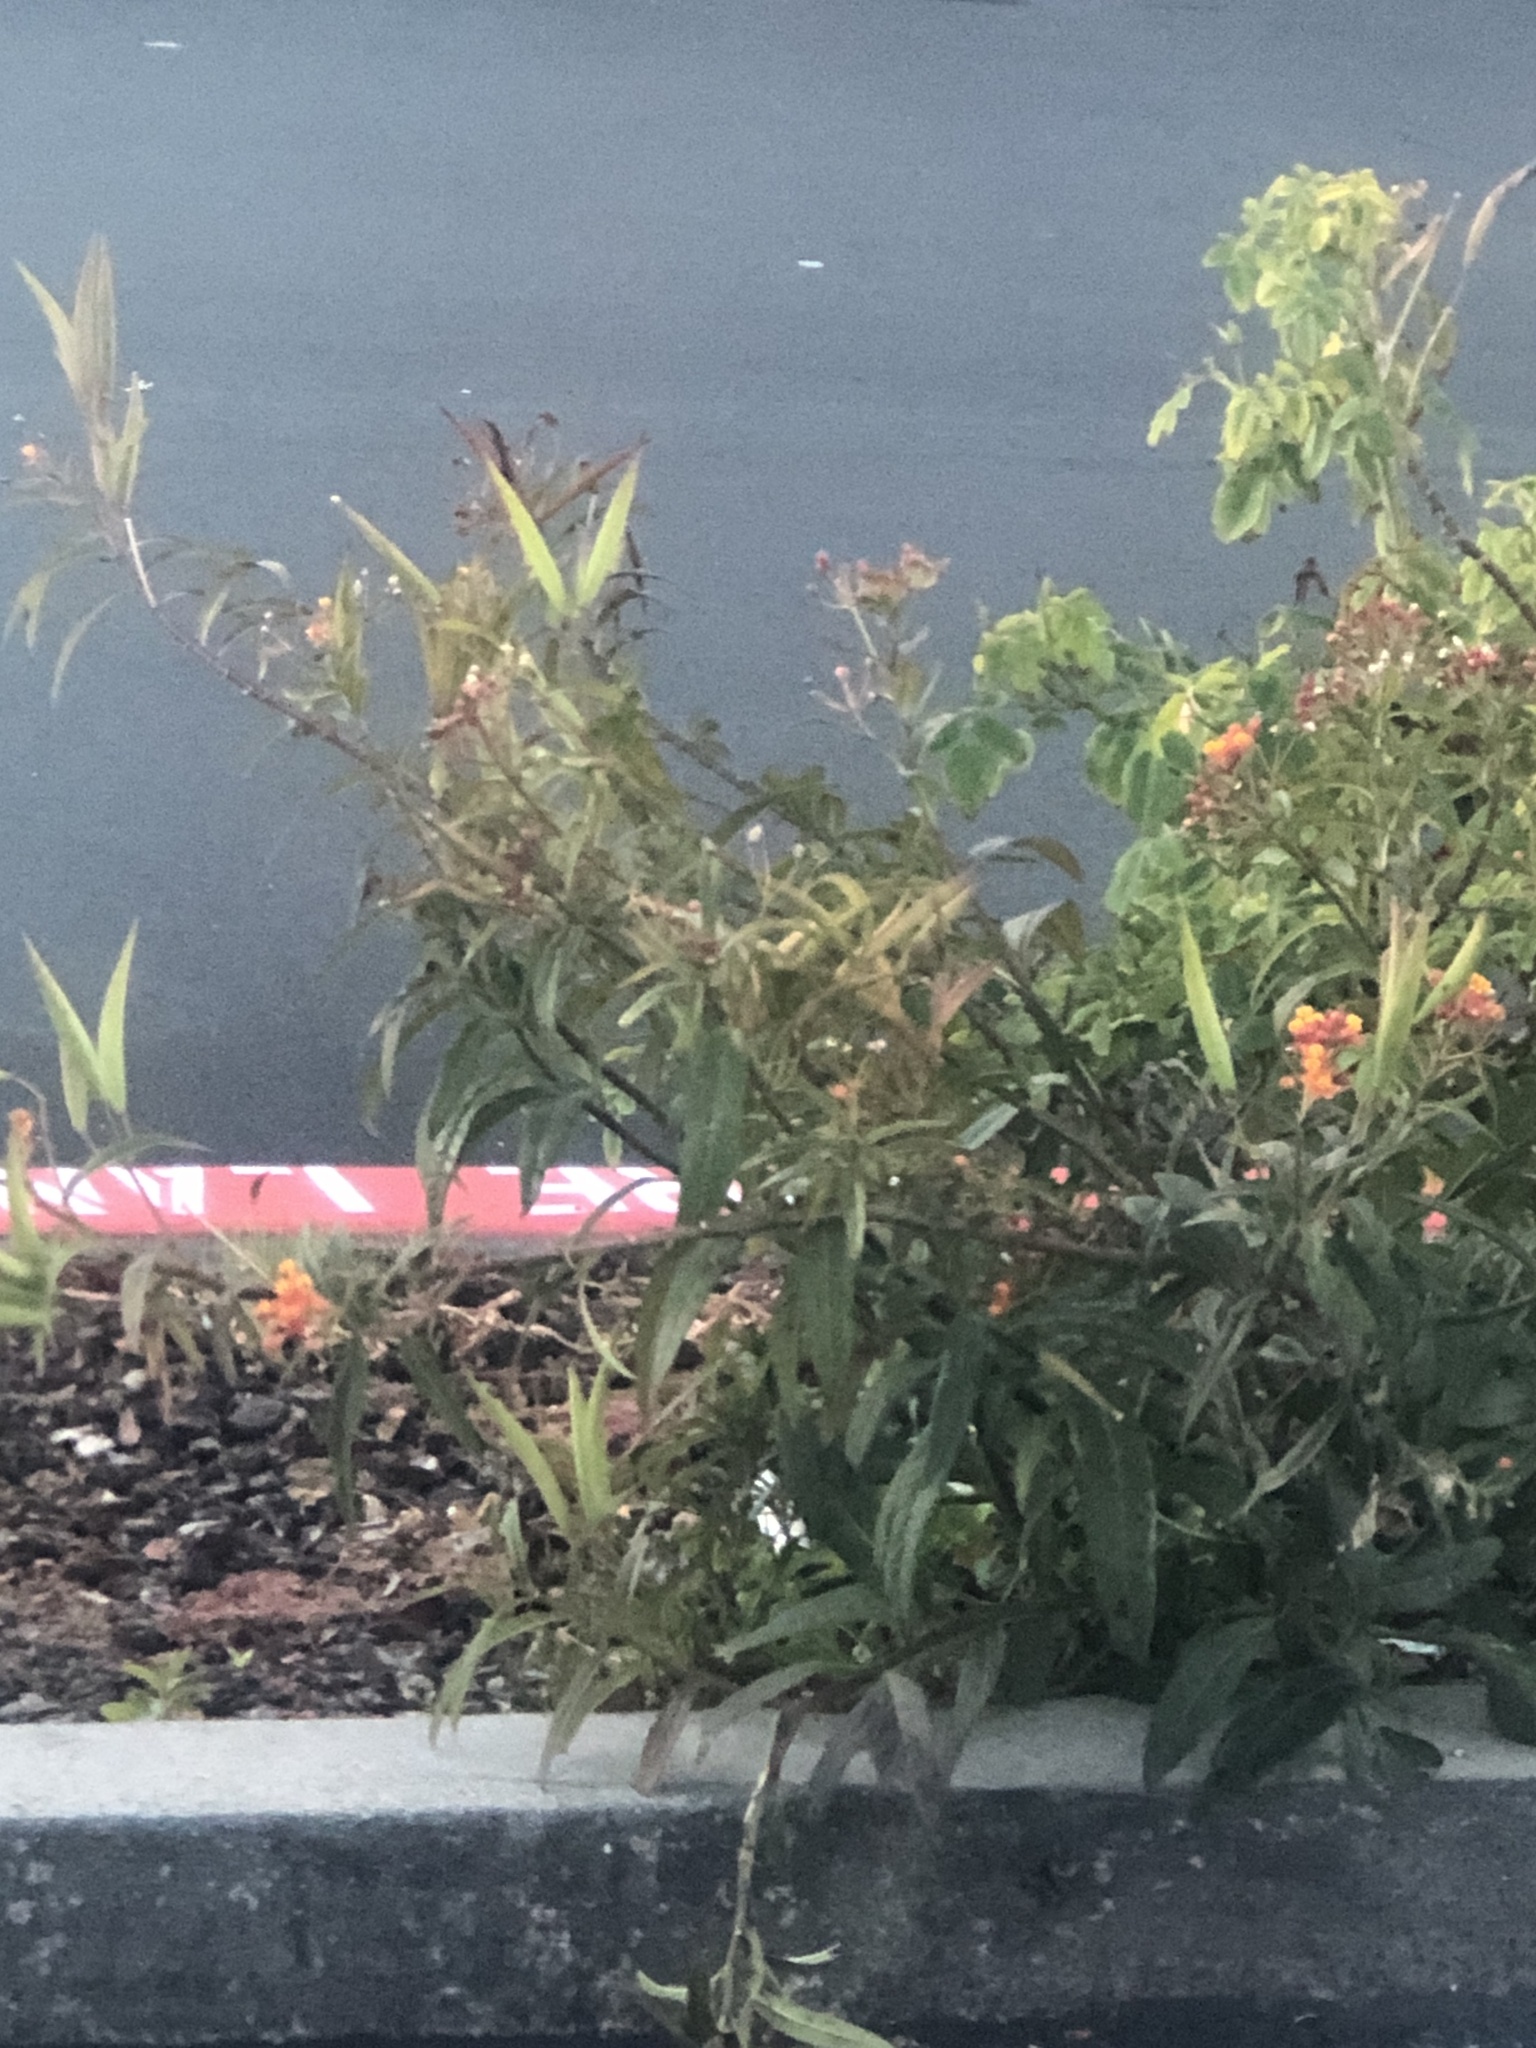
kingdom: Plantae
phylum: Tracheophyta
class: Magnoliopsida
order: Gentianales
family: Apocynaceae
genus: Asclepias
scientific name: Asclepias curassavica
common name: Bloodflower
